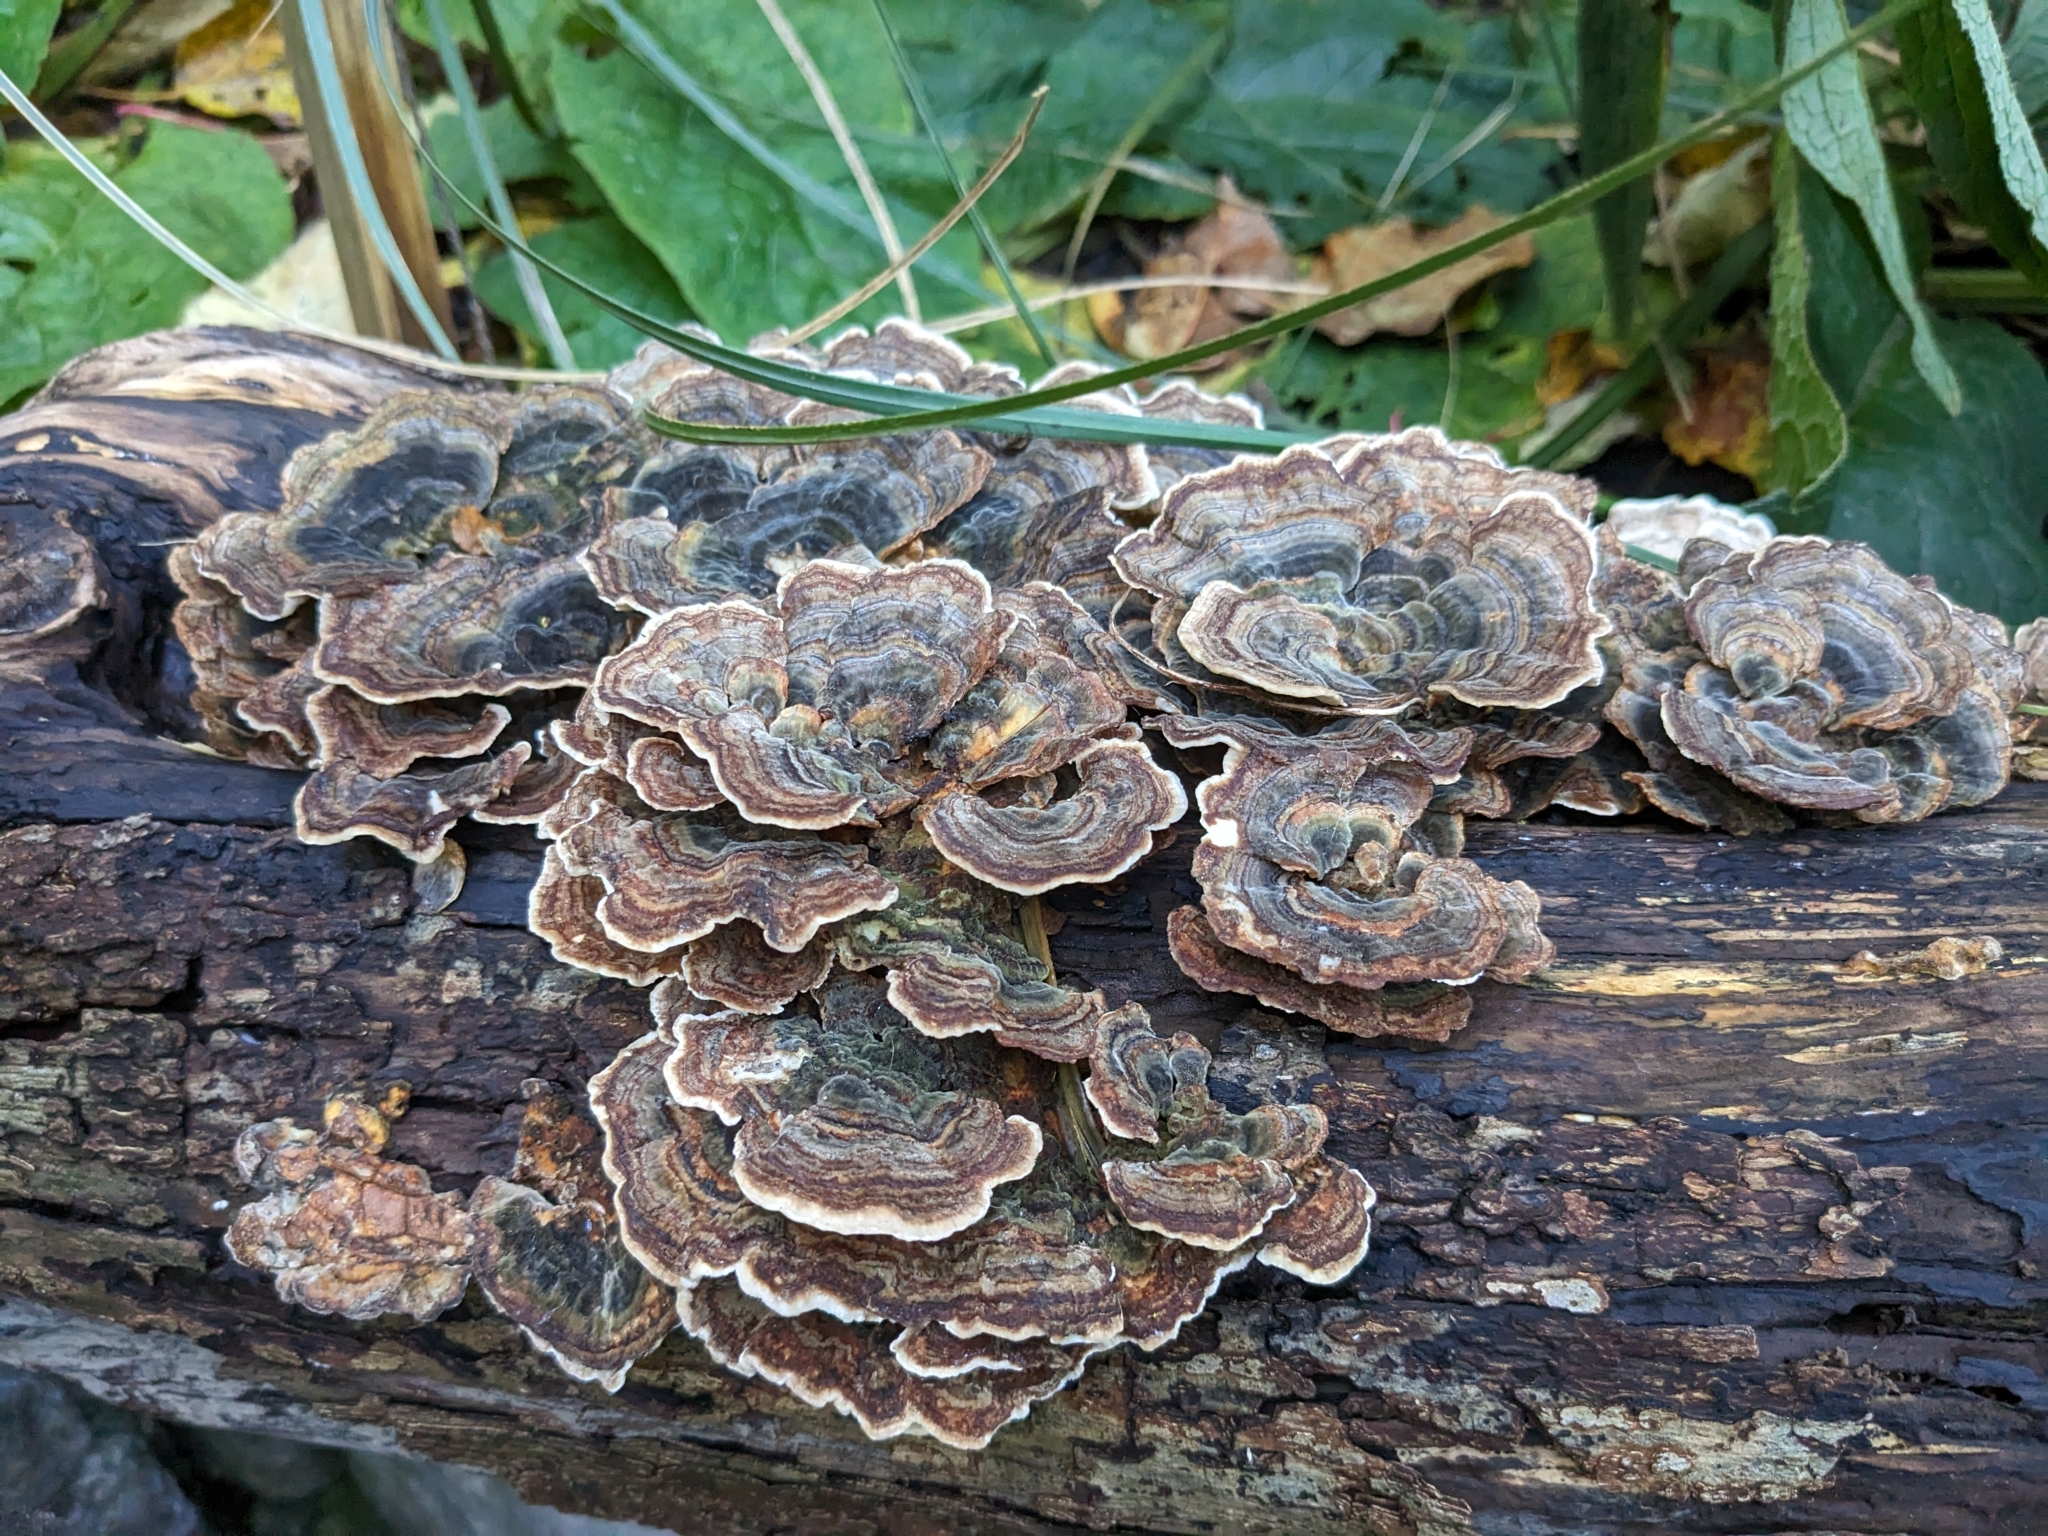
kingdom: Fungi
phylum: Basidiomycota
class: Agaricomycetes
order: Polyporales
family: Polyporaceae
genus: Trametes
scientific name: Trametes versicolor
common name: Turkeytail
